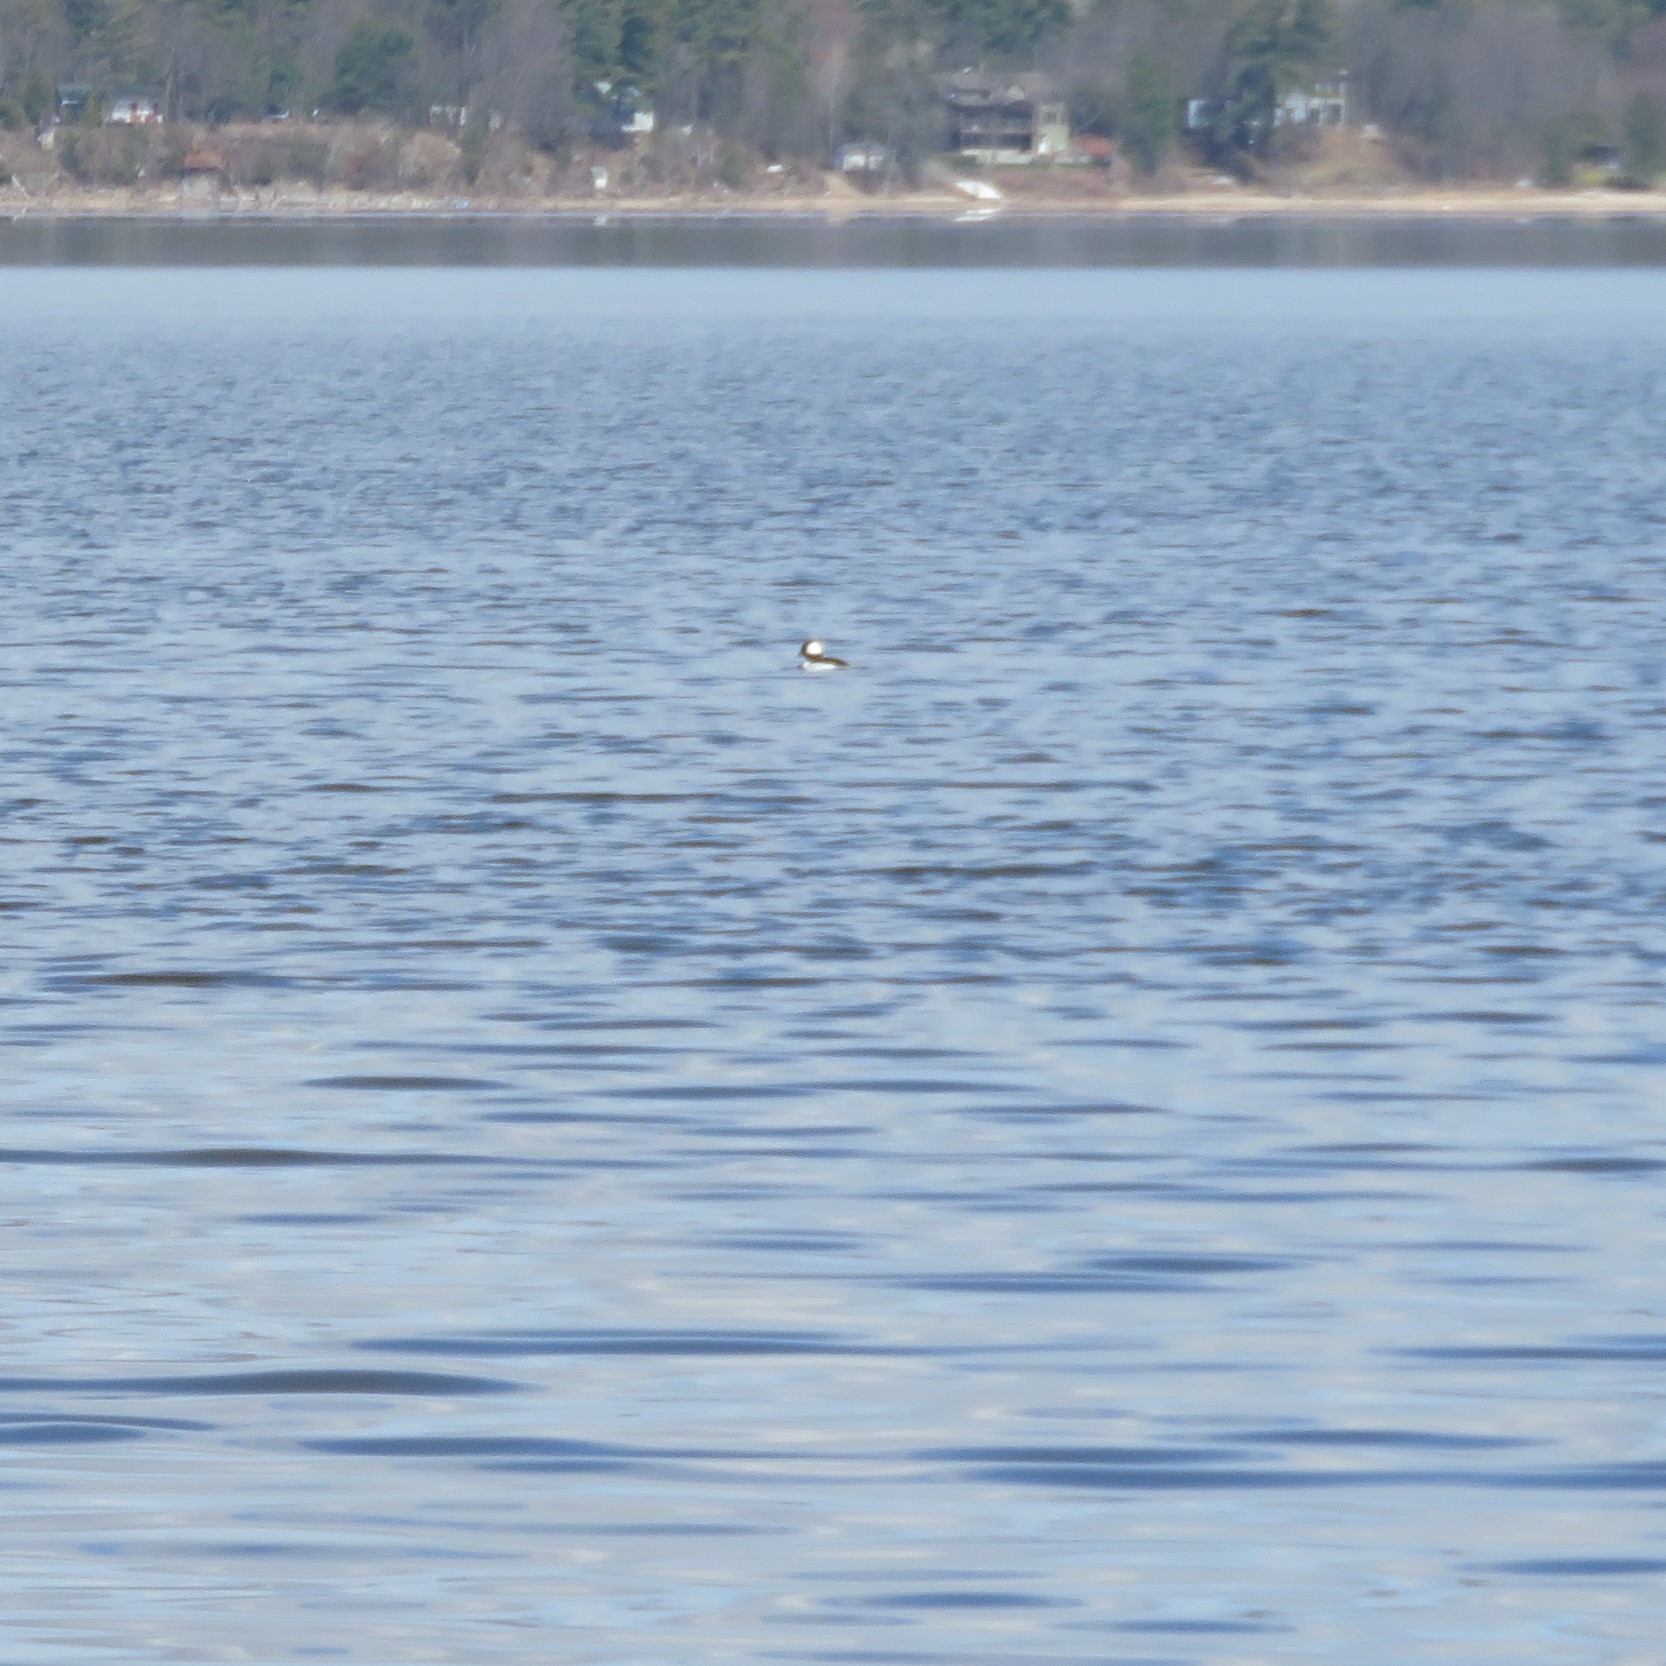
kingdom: Animalia
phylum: Chordata
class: Aves
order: Anseriformes
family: Anatidae
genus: Bucephala
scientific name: Bucephala albeola
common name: Bufflehead
